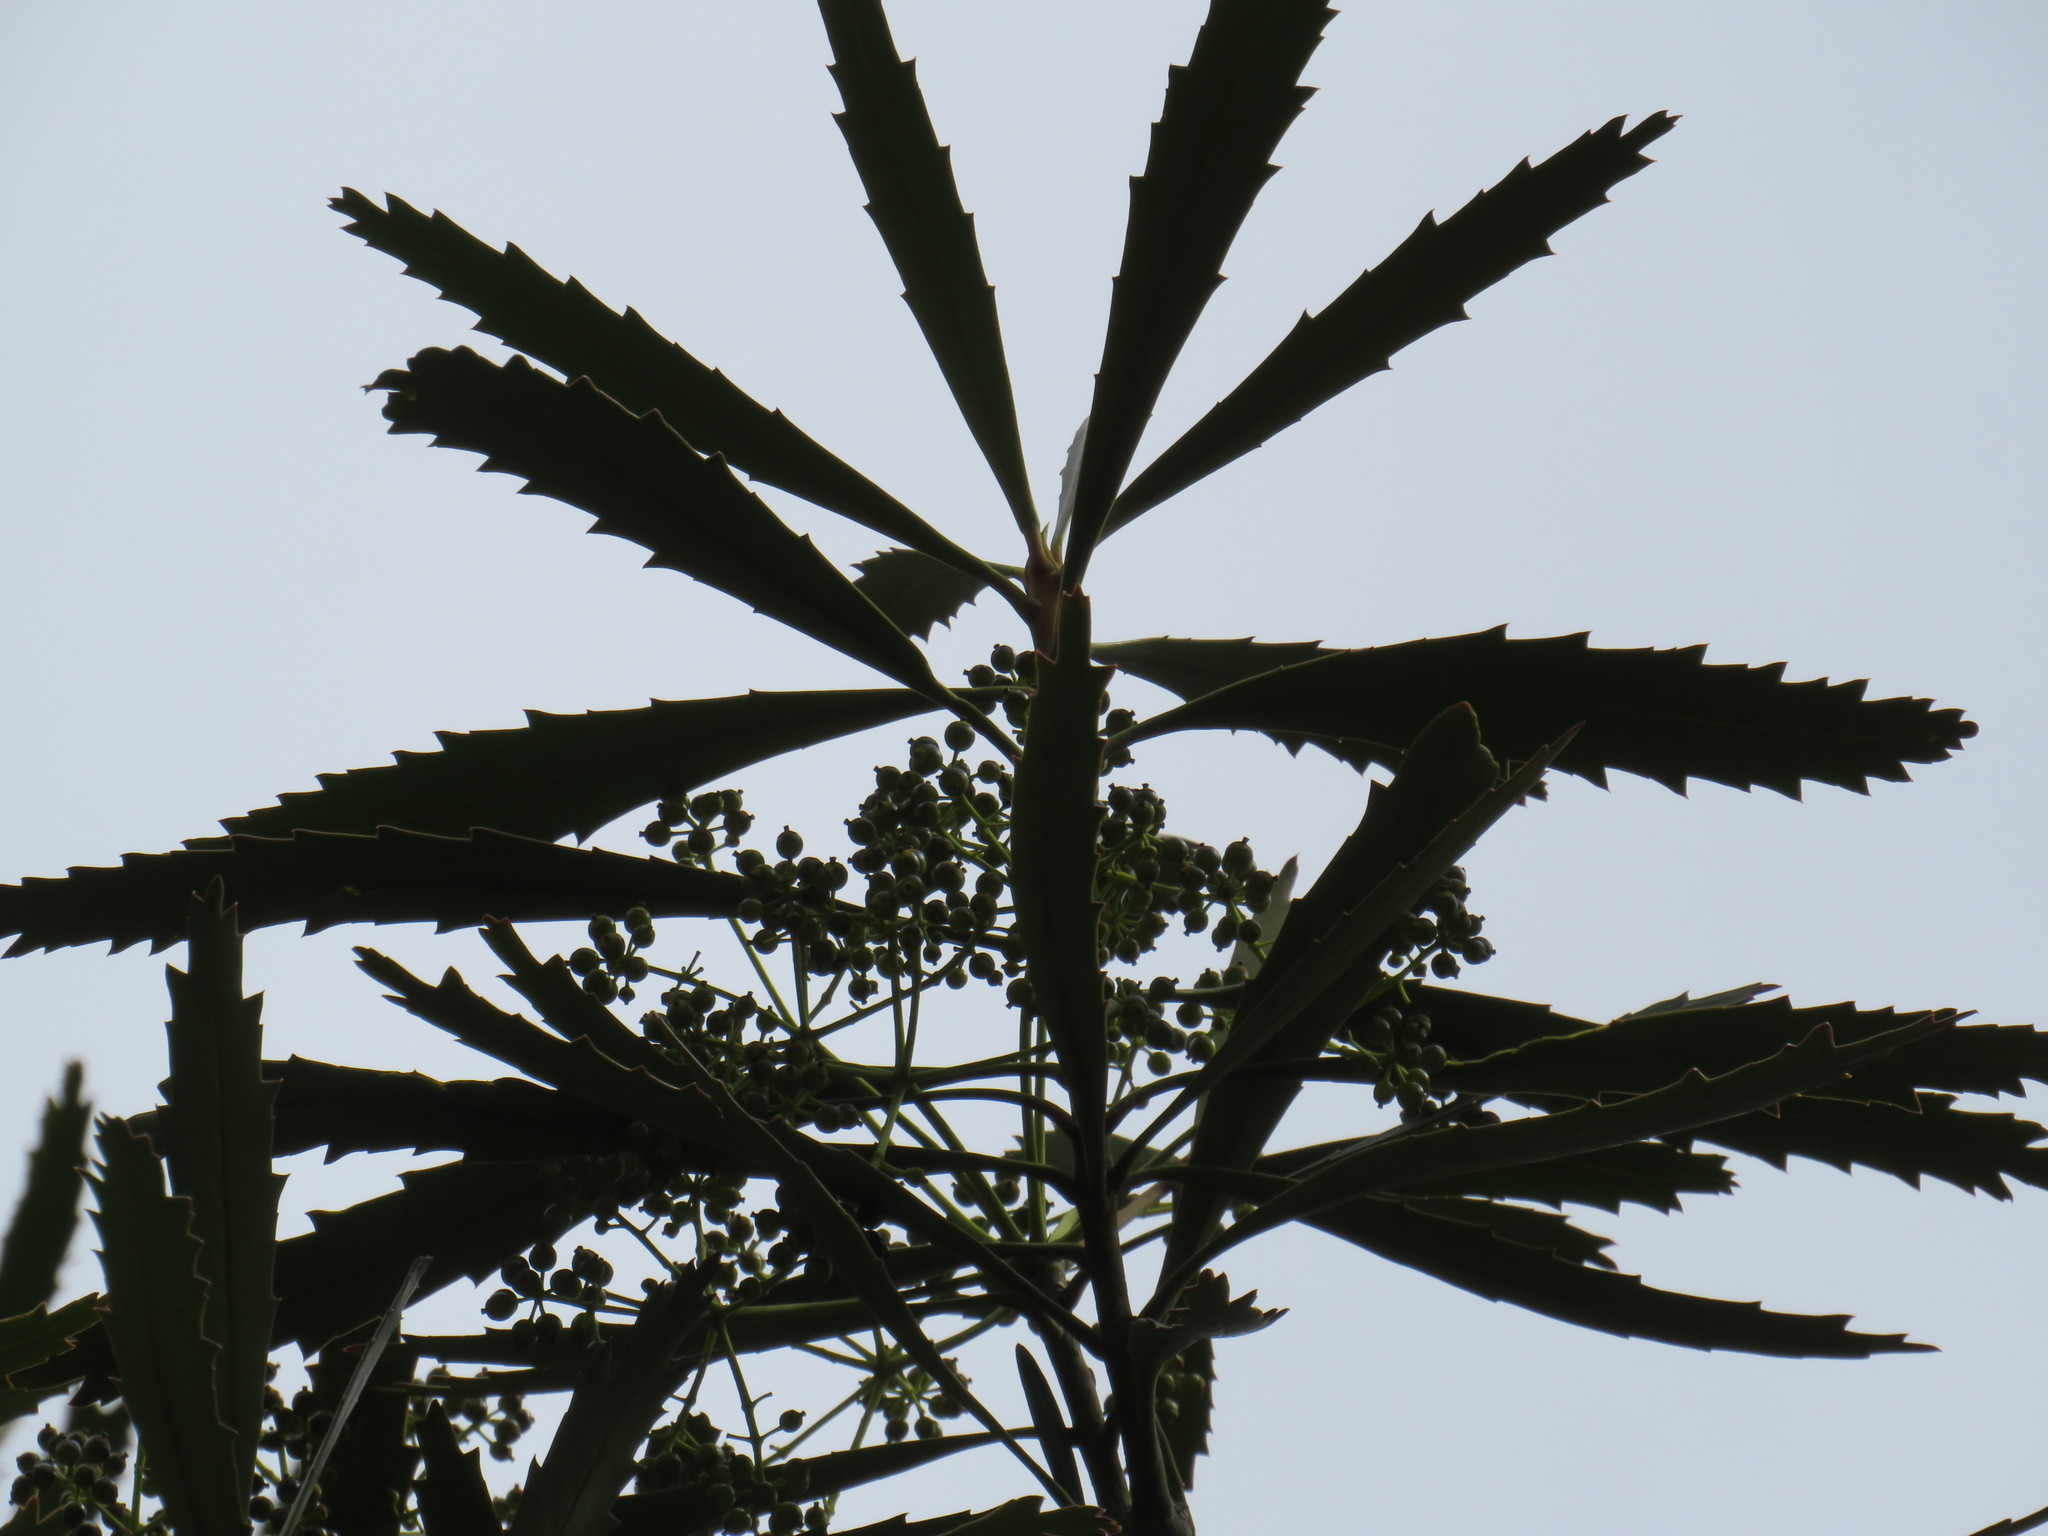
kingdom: Plantae
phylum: Tracheophyta
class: Magnoliopsida
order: Apiales
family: Araliaceae
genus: Pseudopanax
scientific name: Pseudopanax crassifolius
